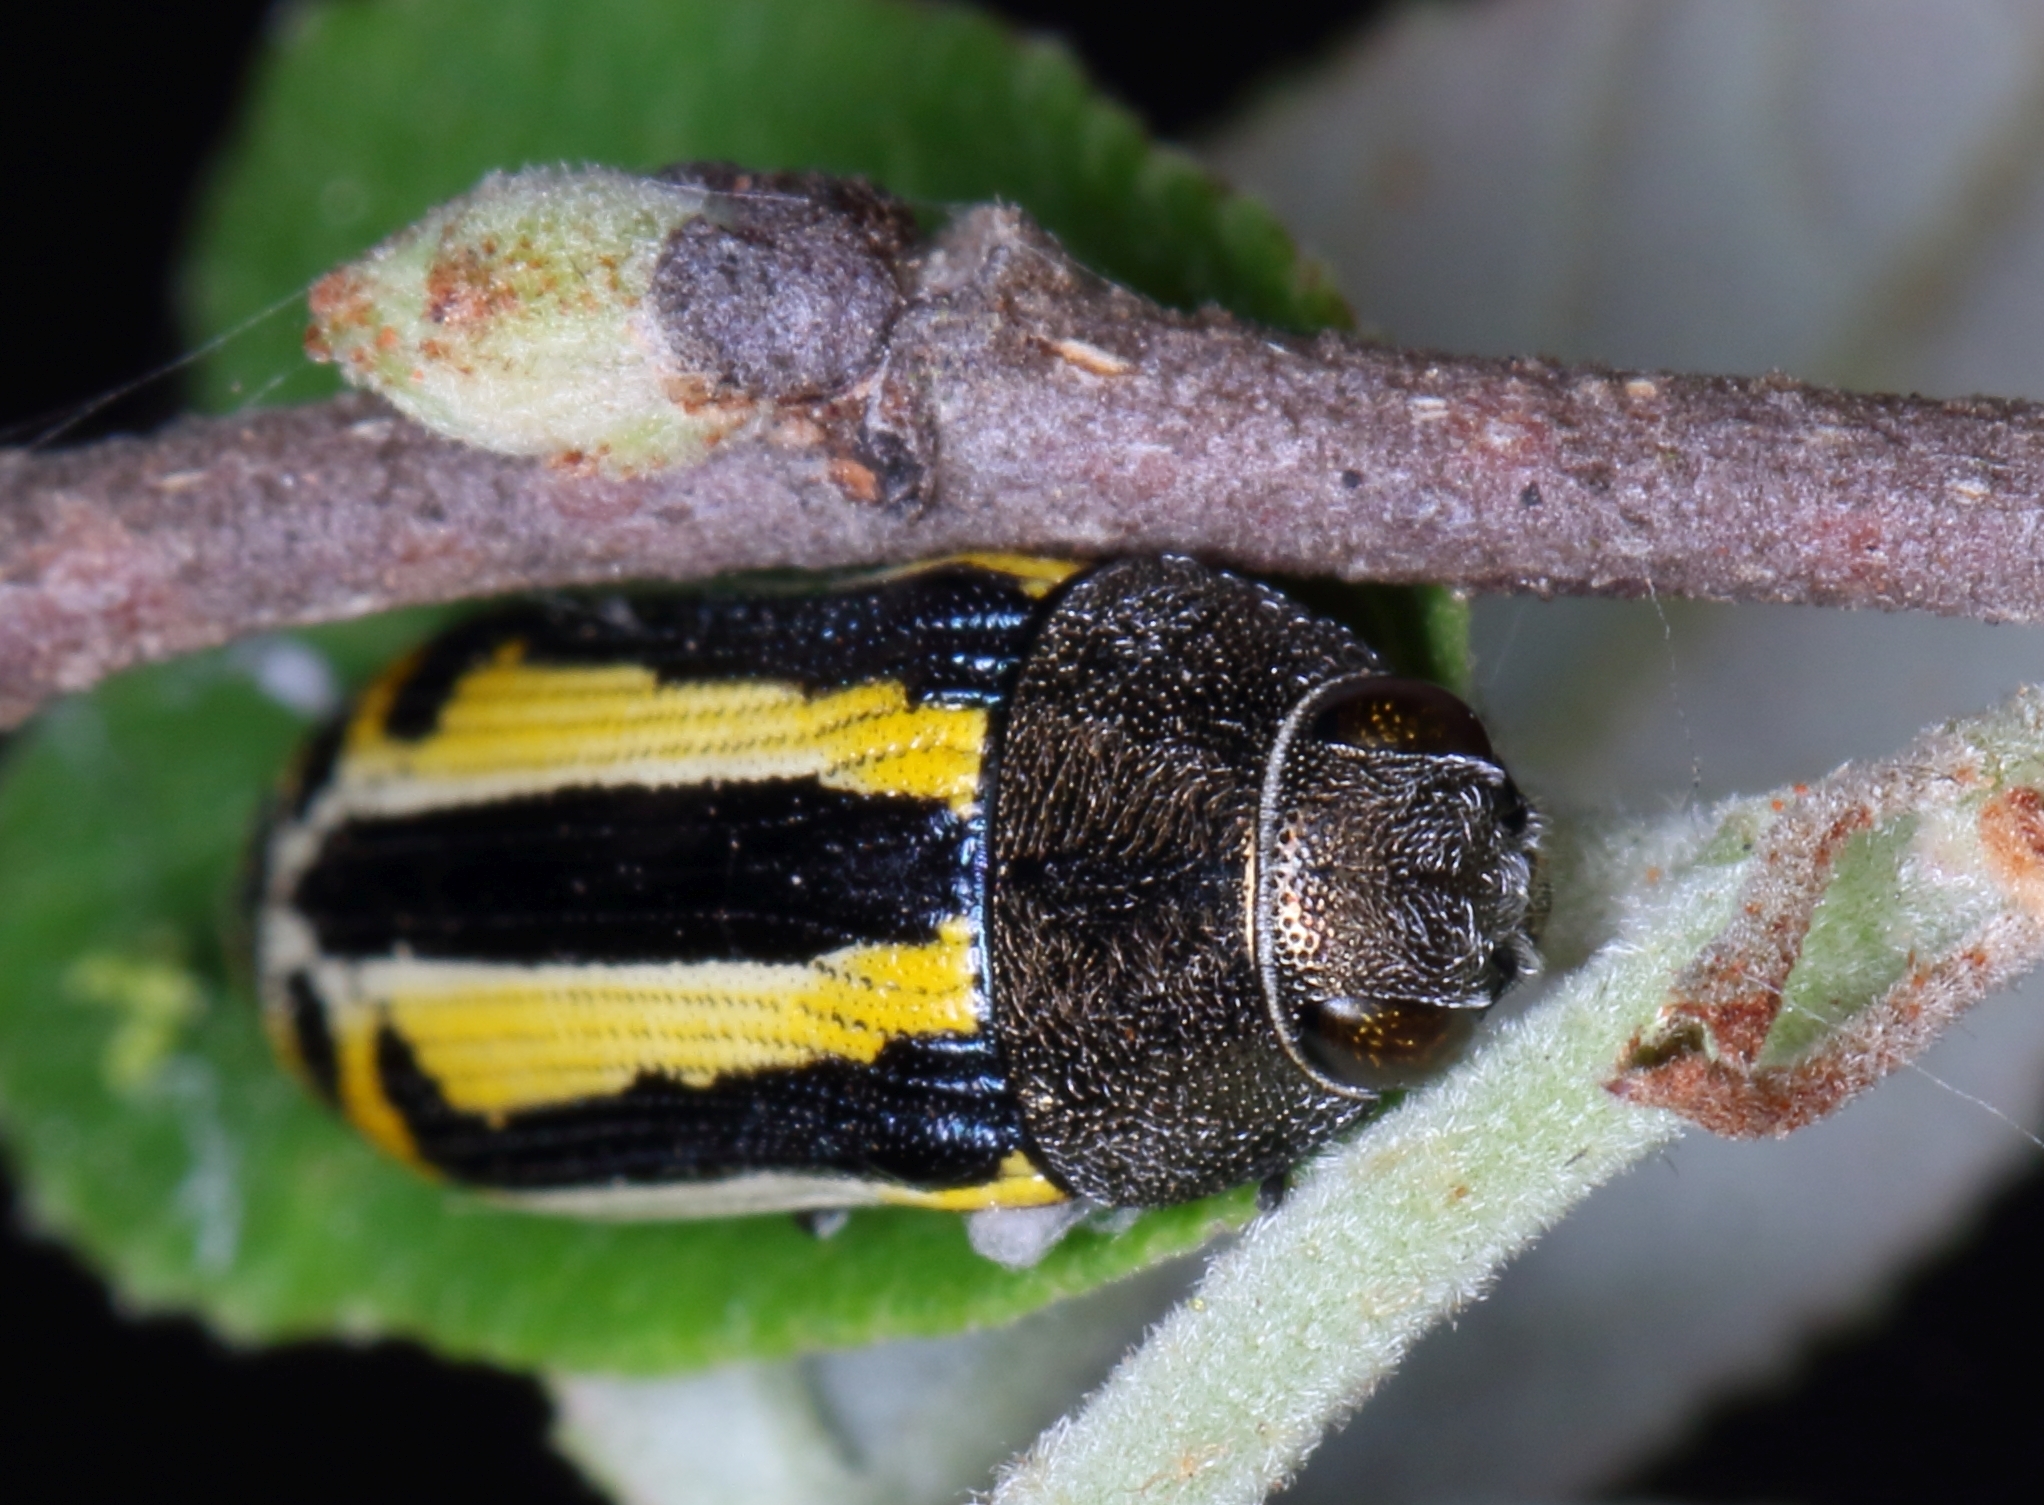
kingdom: Animalia
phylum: Arthropoda
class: Insecta
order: Coleoptera
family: Buprestidae
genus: Acmaeodera
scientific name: Acmaeodera grata
